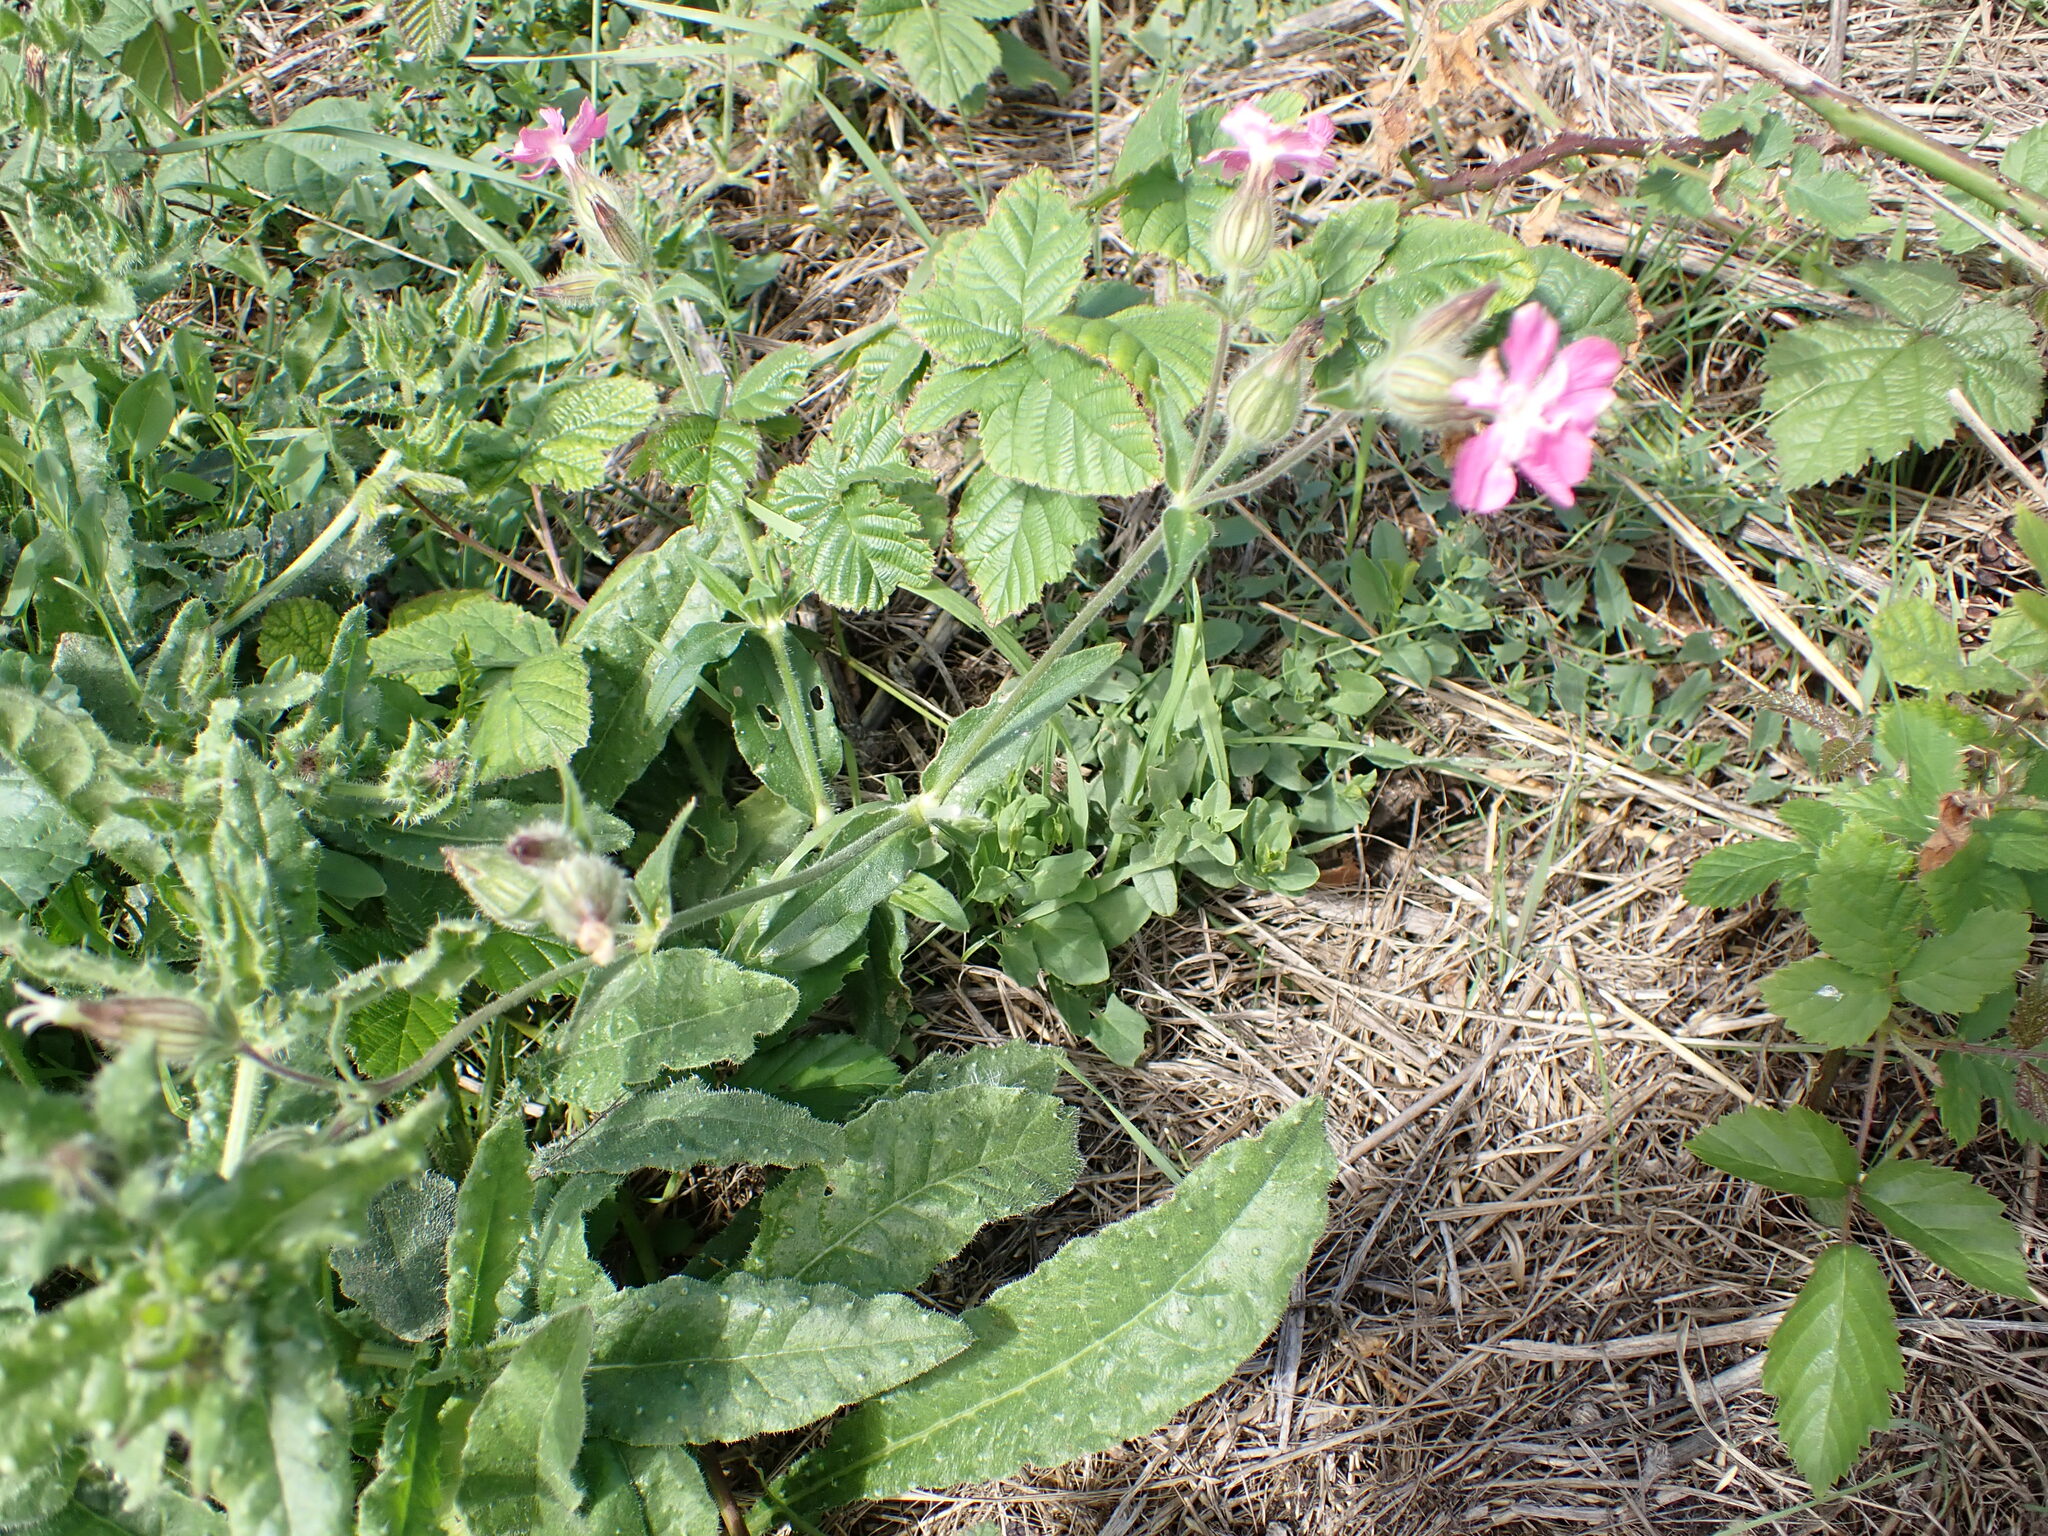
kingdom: Plantae
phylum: Tracheophyta
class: Magnoliopsida
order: Caryophyllales
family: Caryophyllaceae
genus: Silene
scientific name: Silene dioica
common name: Red campion
